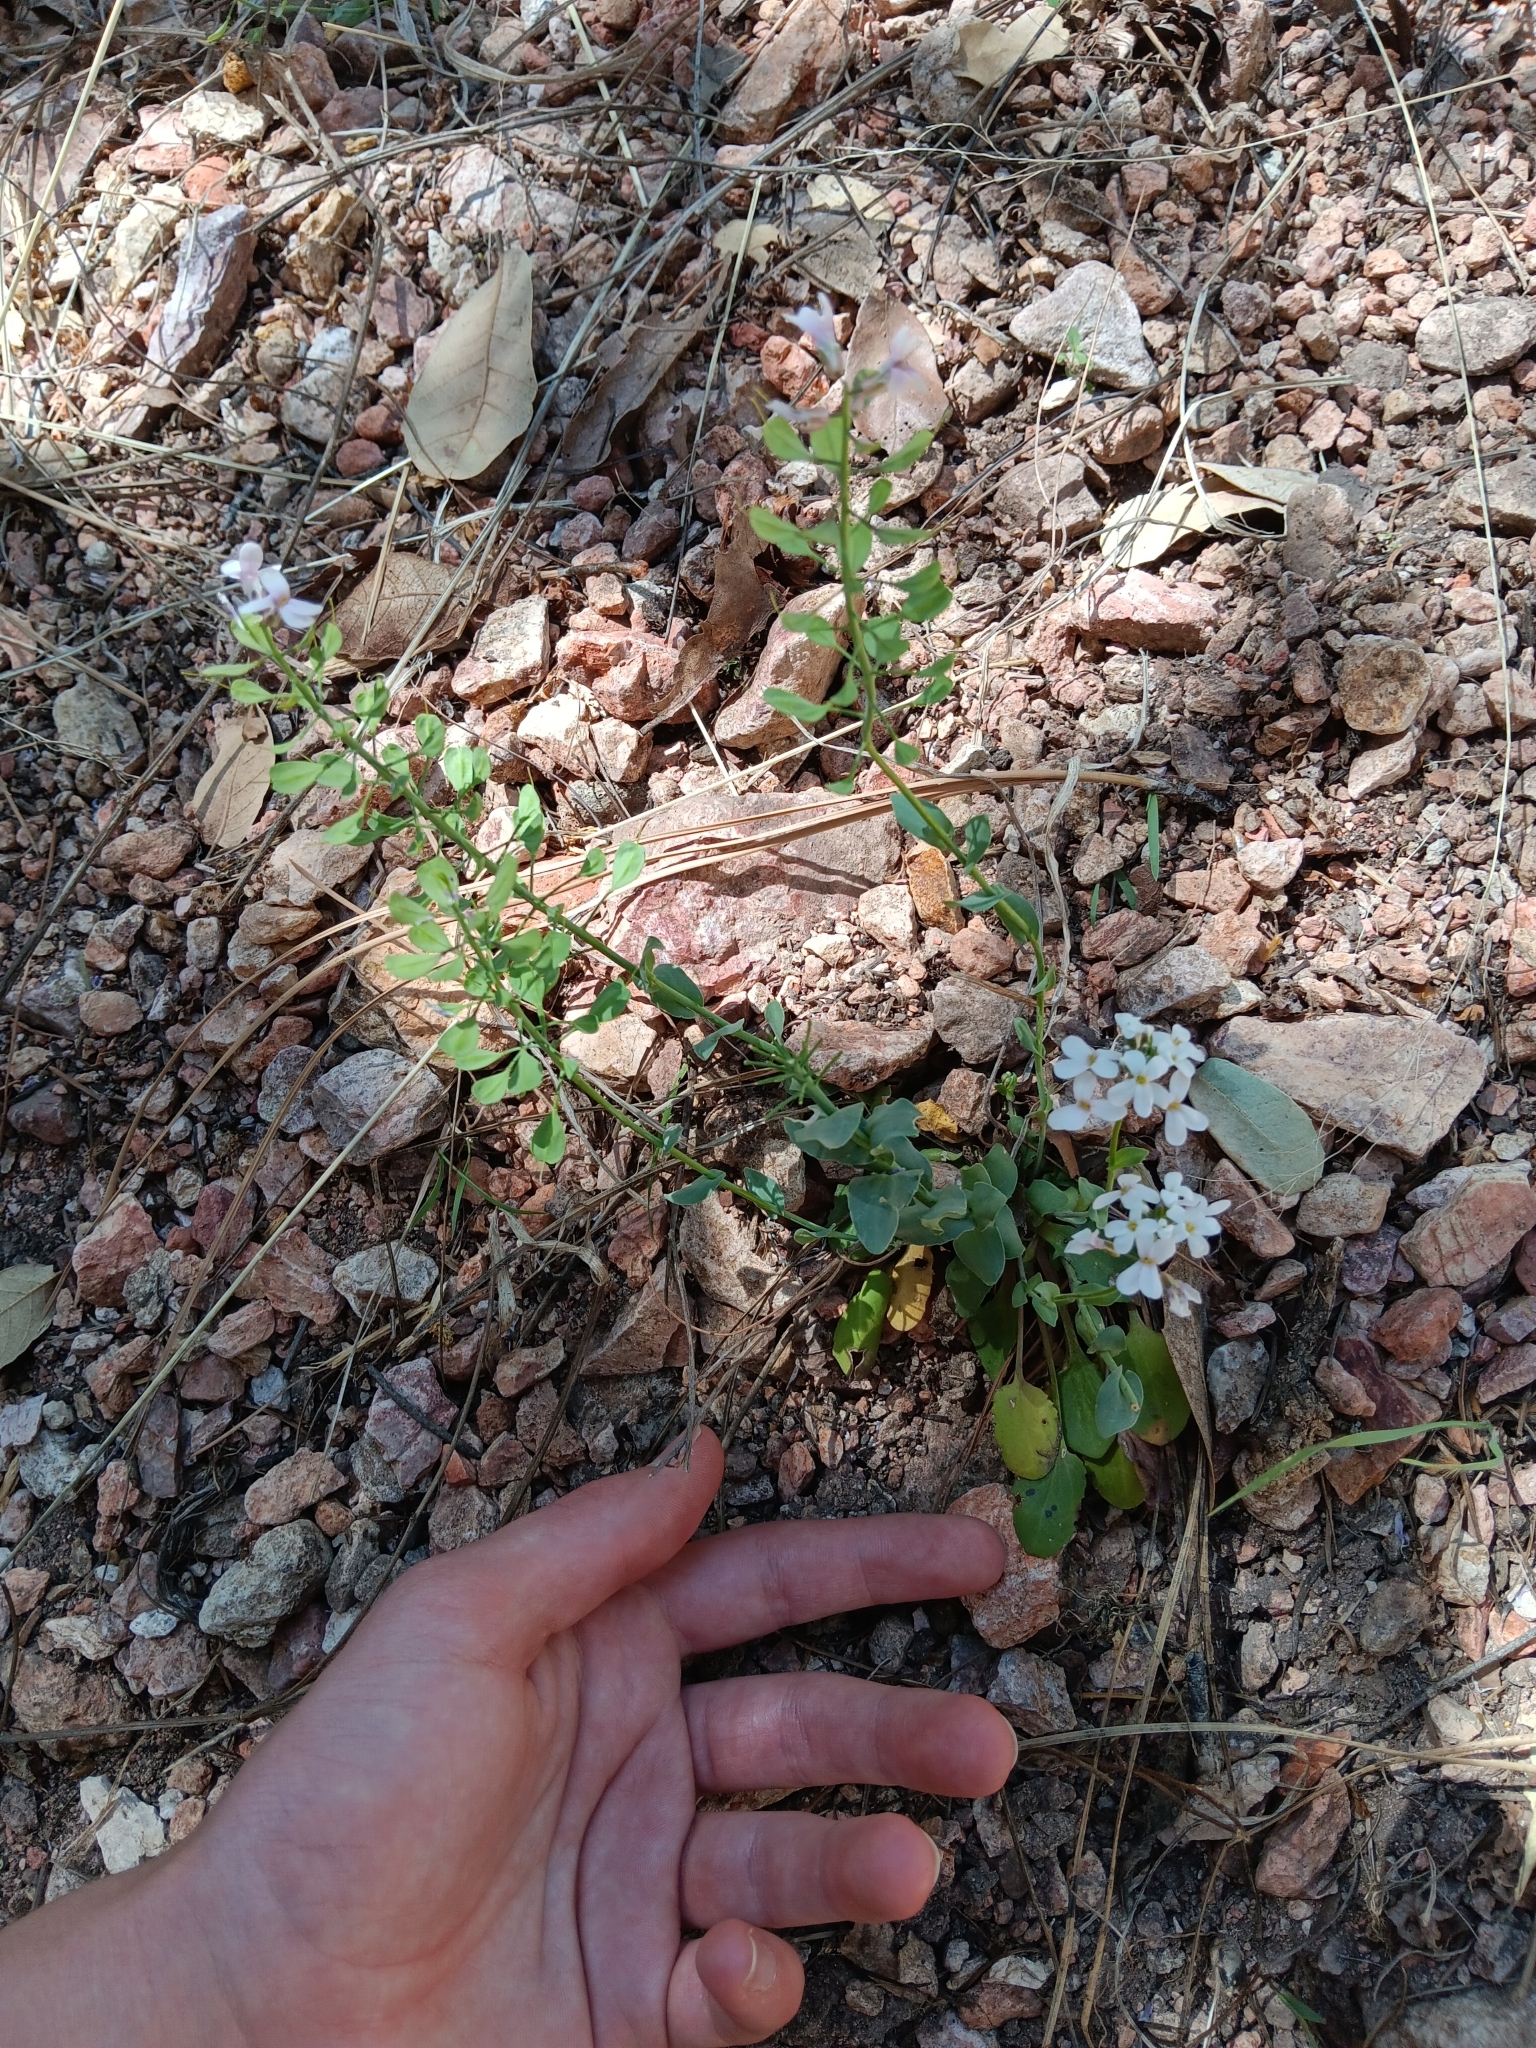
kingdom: Plantae
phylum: Tracheophyta
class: Magnoliopsida
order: Brassicales
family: Brassicaceae
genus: Noccaea
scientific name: Noccaea fendleri
